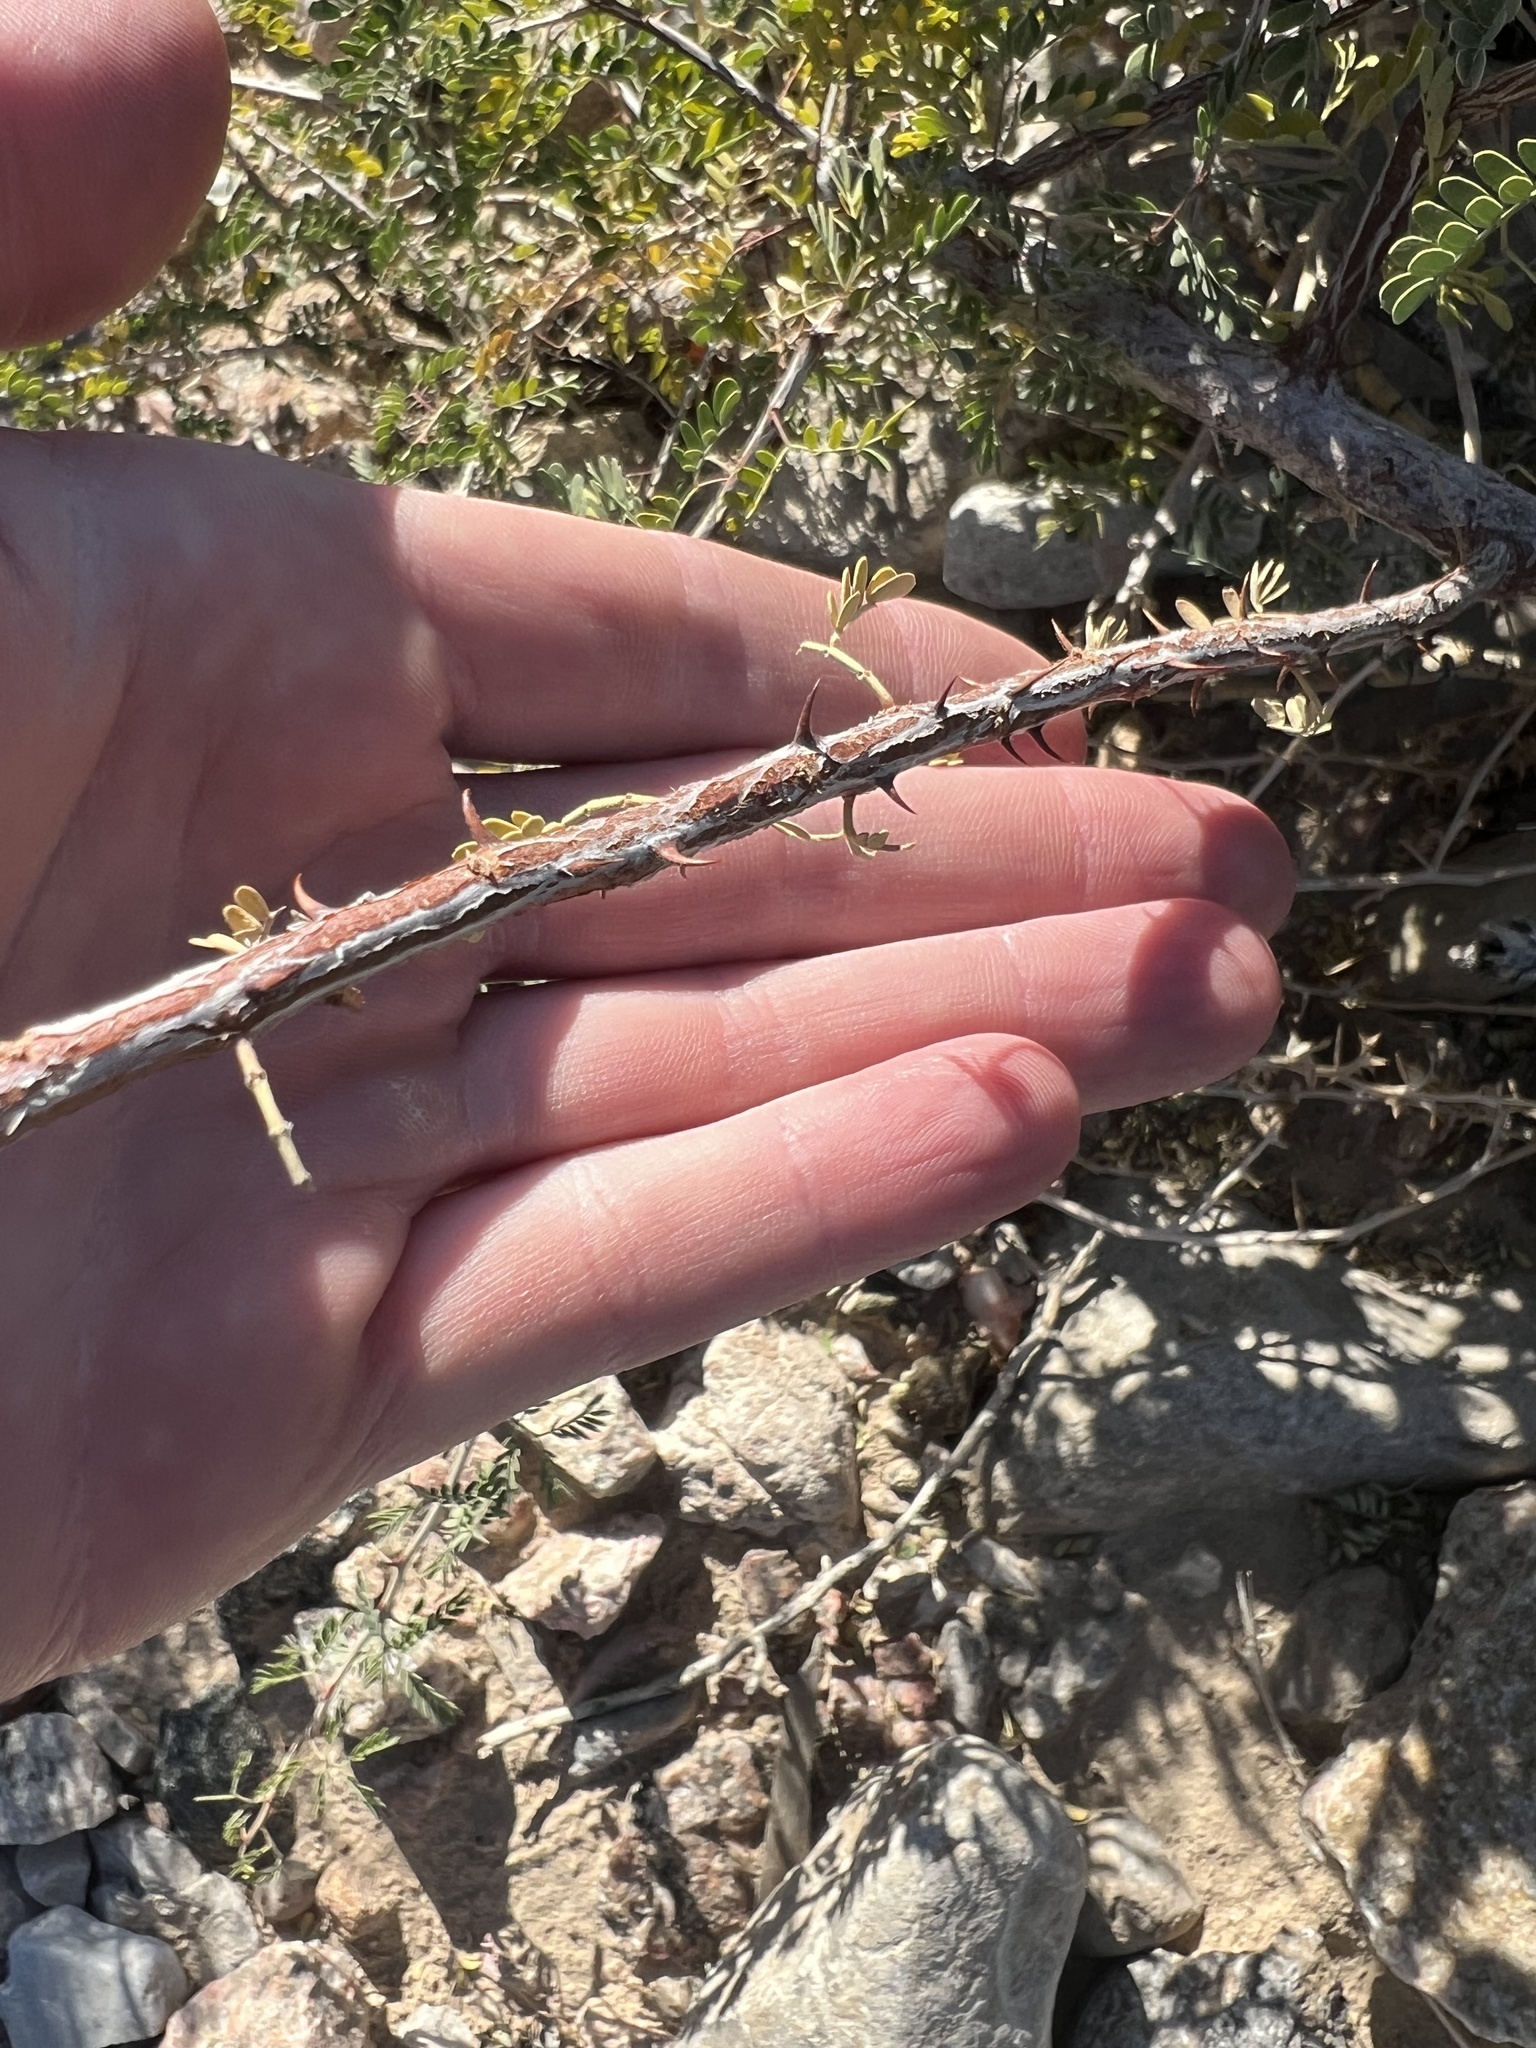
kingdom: Plantae
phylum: Tracheophyta
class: Magnoliopsida
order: Fabales
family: Fabaceae
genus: Senegalia
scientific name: Senegalia greggii
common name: Texas-mimosa
